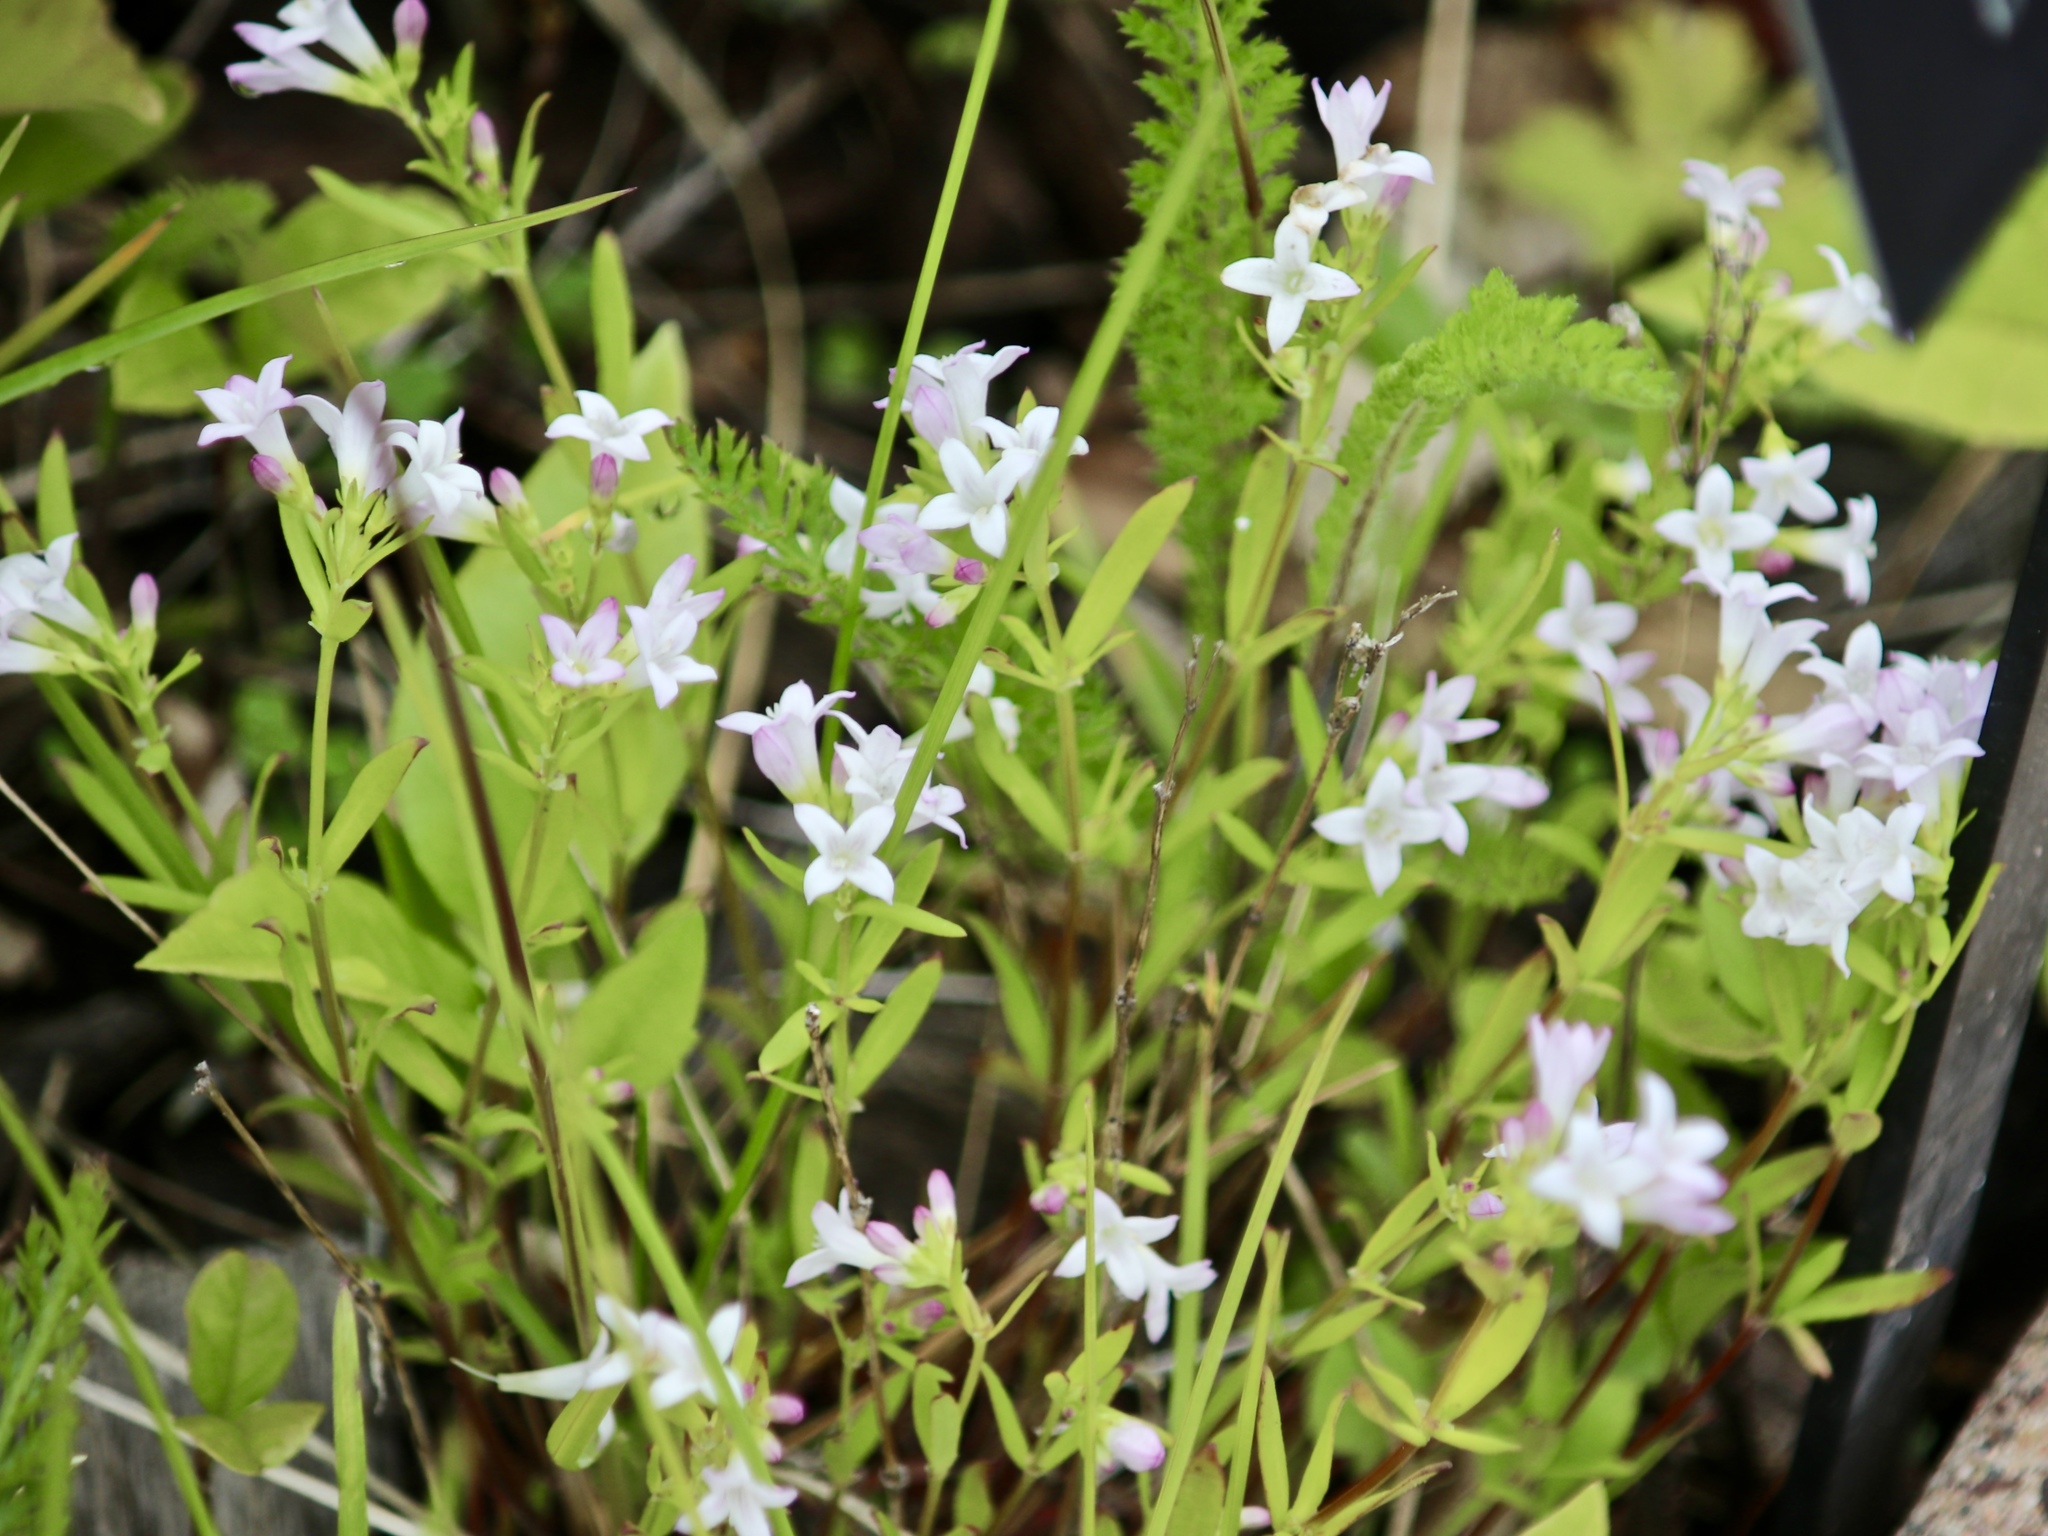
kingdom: Plantae
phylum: Tracheophyta
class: Magnoliopsida
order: Gentianales
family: Rubiaceae
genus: Houstonia
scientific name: Houstonia longifolia
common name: Long-leaved bluets
